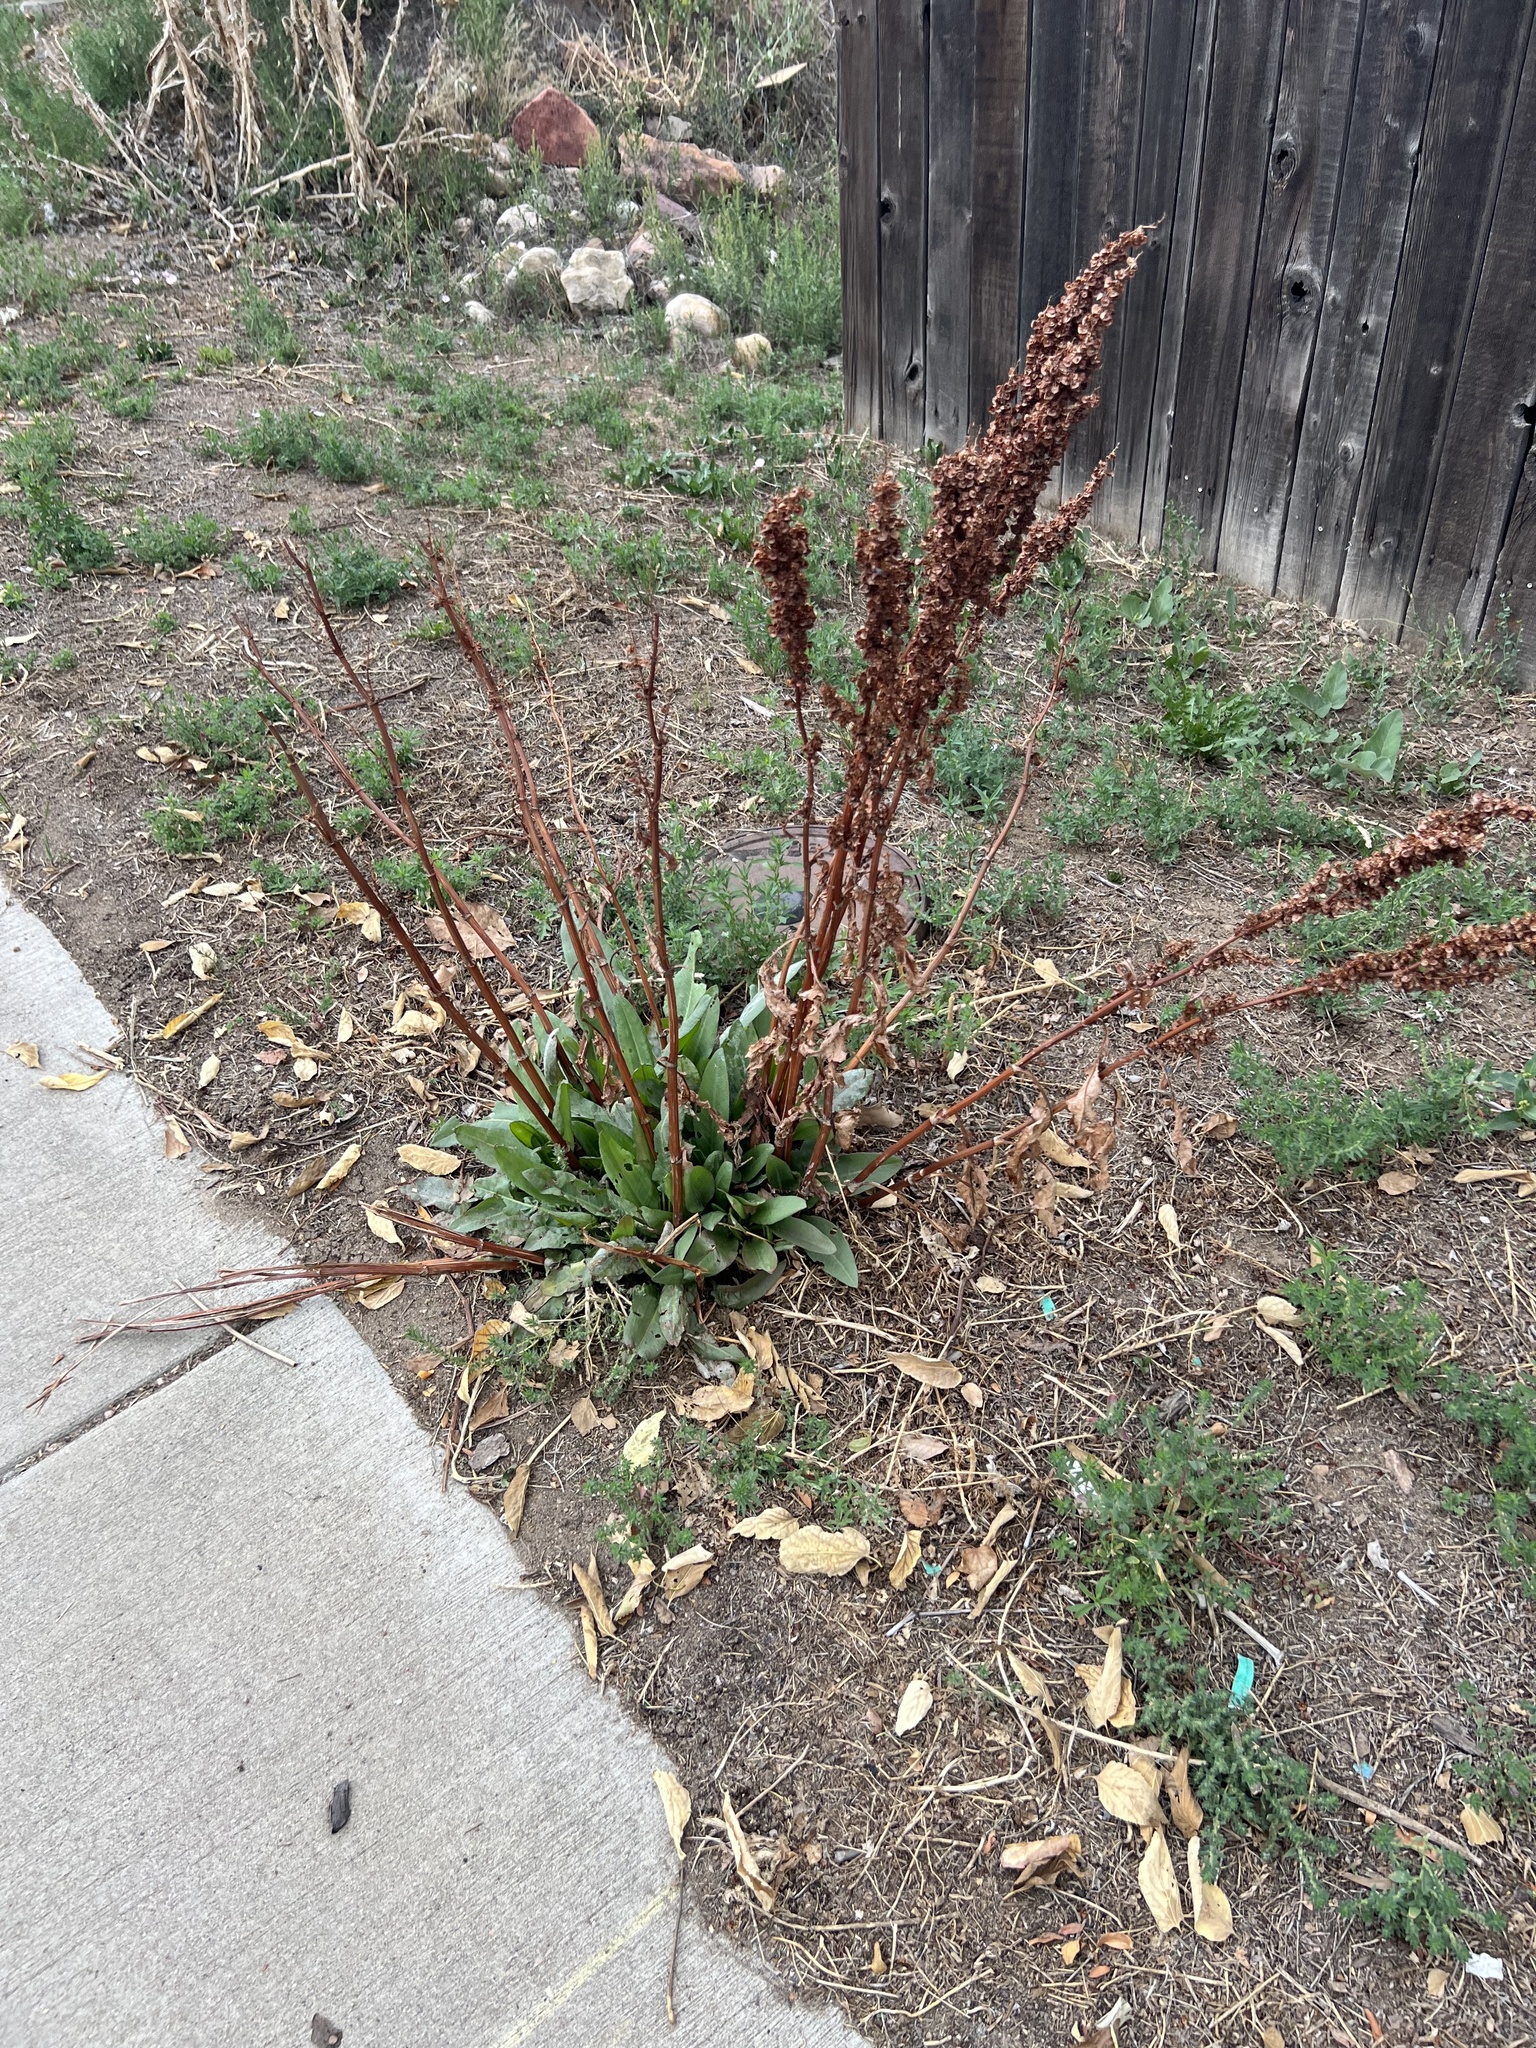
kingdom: Plantae
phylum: Tracheophyta
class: Magnoliopsida
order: Caryophyllales
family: Polygonaceae
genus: Rumex
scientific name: Rumex crispus
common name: Curled dock
